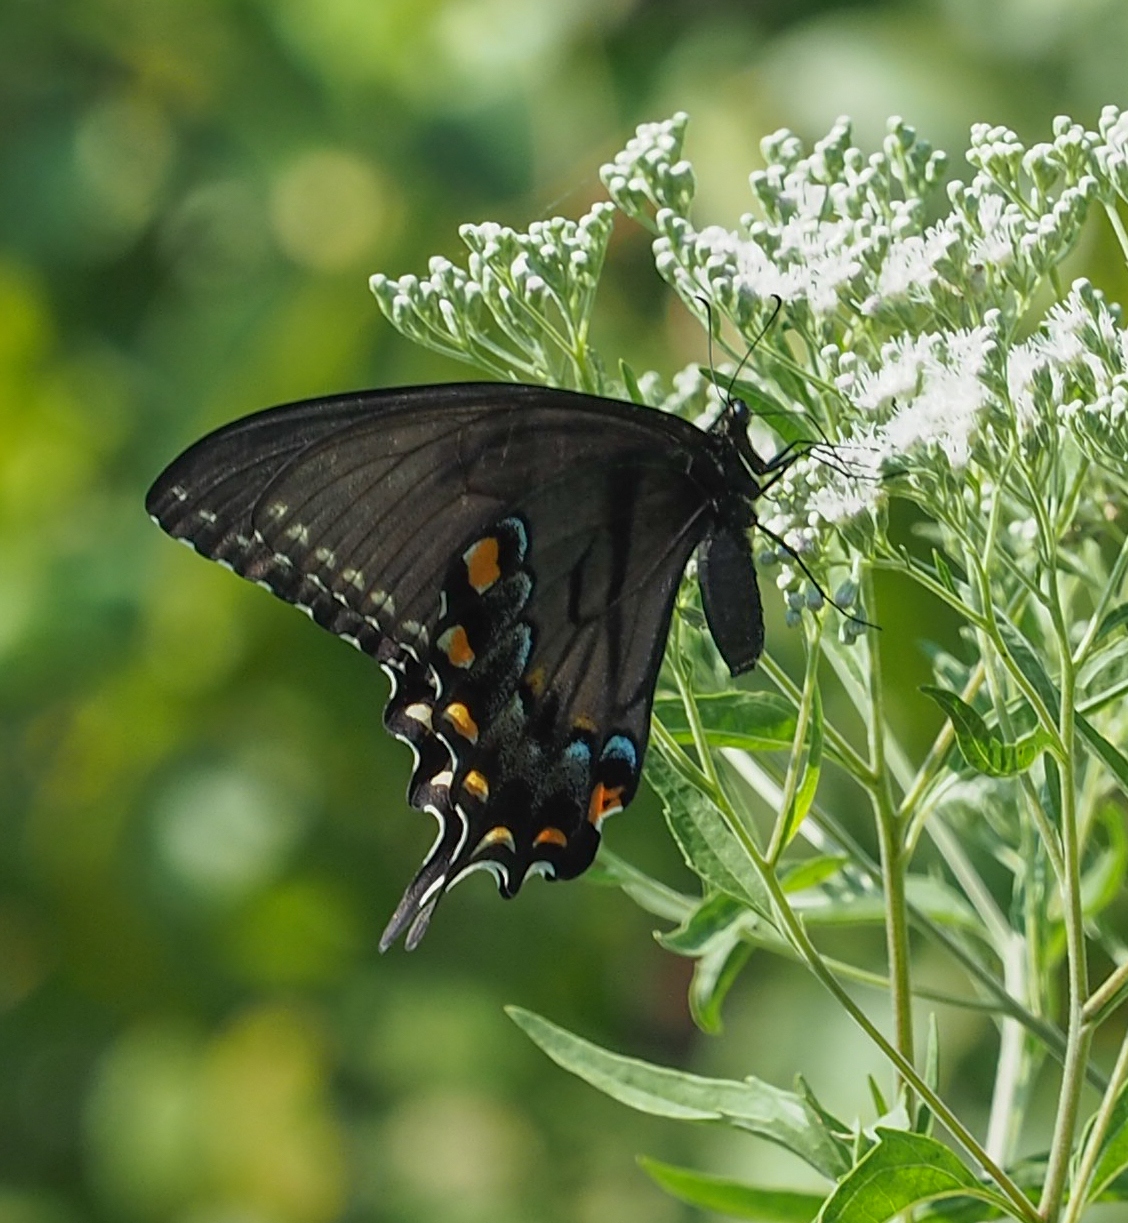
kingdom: Animalia
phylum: Arthropoda
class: Insecta
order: Lepidoptera
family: Papilionidae
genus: Papilio
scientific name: Papilio glaucus
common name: Tiger swallowtail
